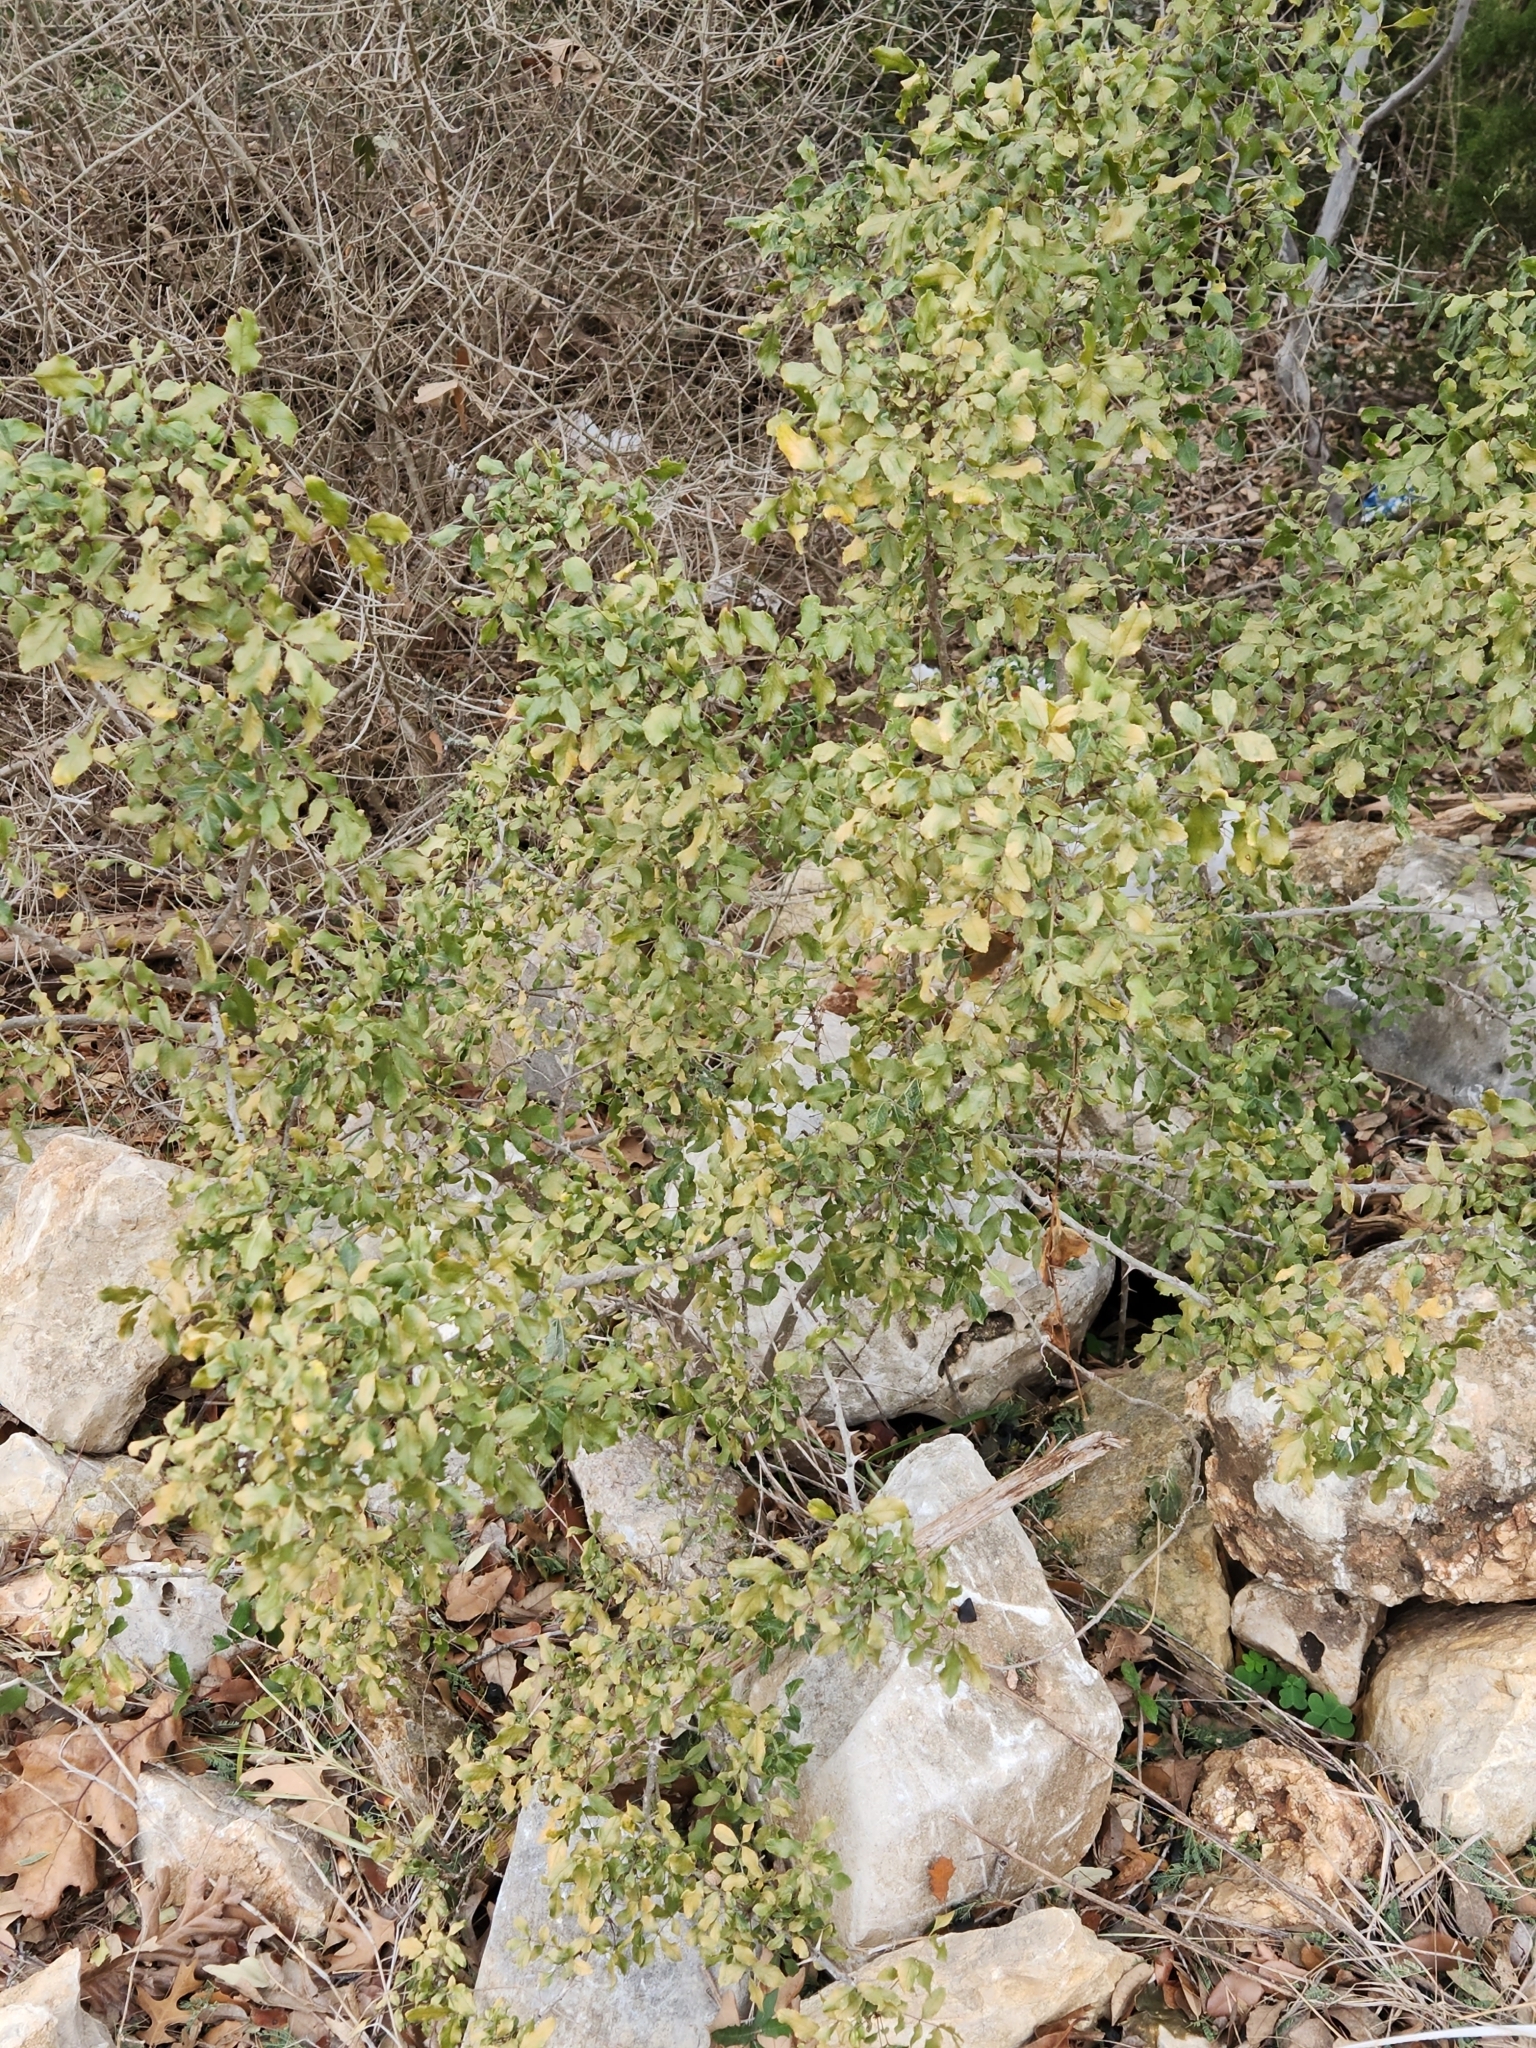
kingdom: Plantae
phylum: Tracheophyta
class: Magnoliopsida
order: Sapindales
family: Rutaceae
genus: Zanthoxylum
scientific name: Zanthoxylum clava-herculis
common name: Hercules'-club
